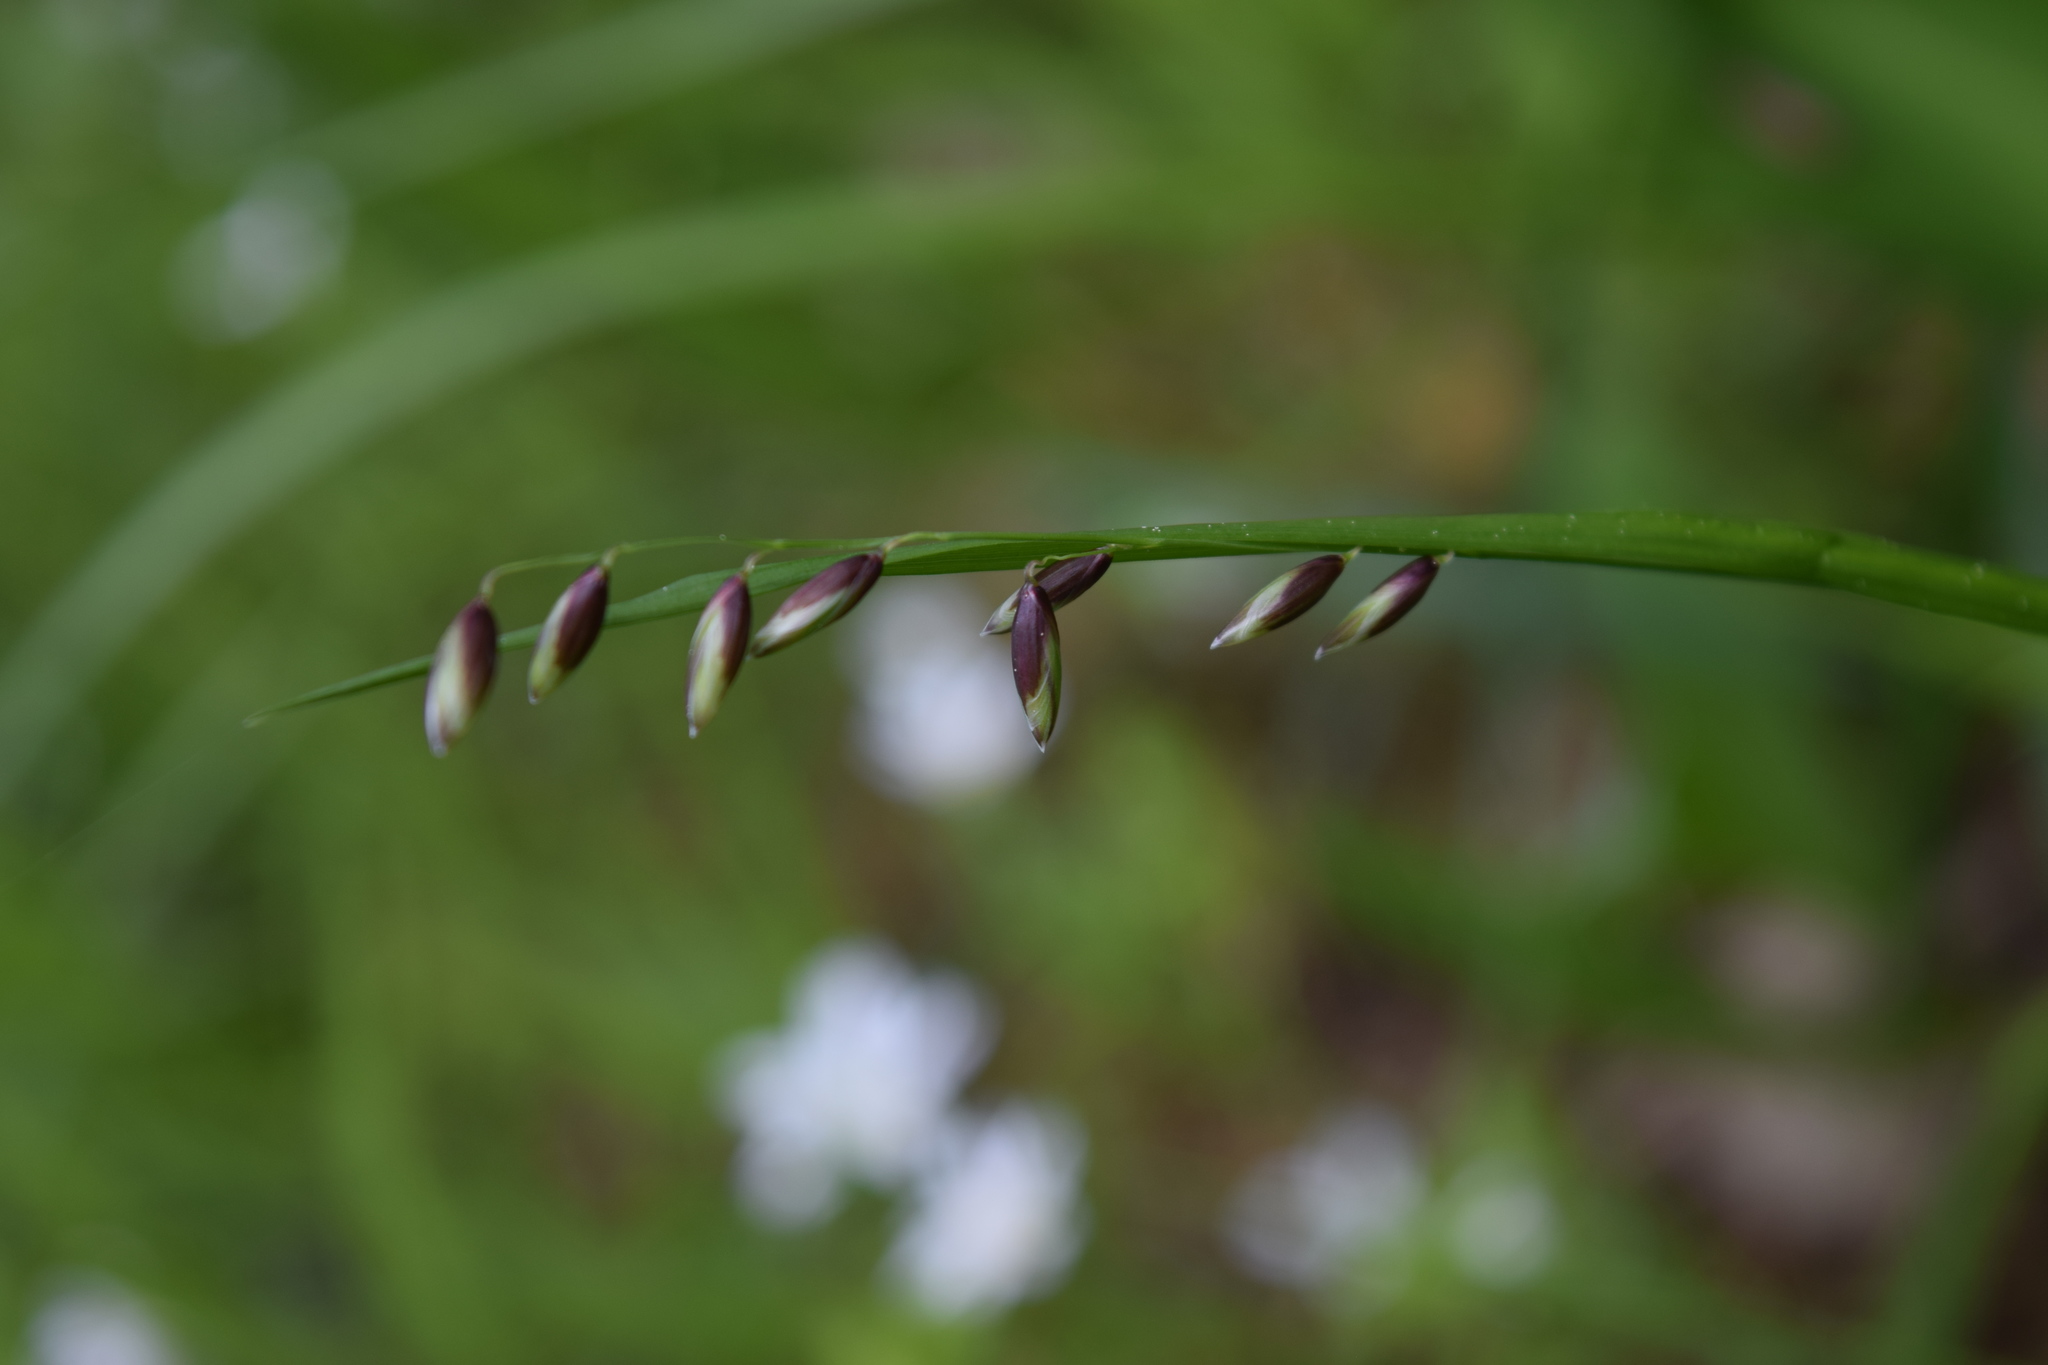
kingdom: Plantae
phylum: Tracheophyta
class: Liliopsida
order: Poales
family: Poaceae
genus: Melica
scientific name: Melica nutans
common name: Mountain melick
